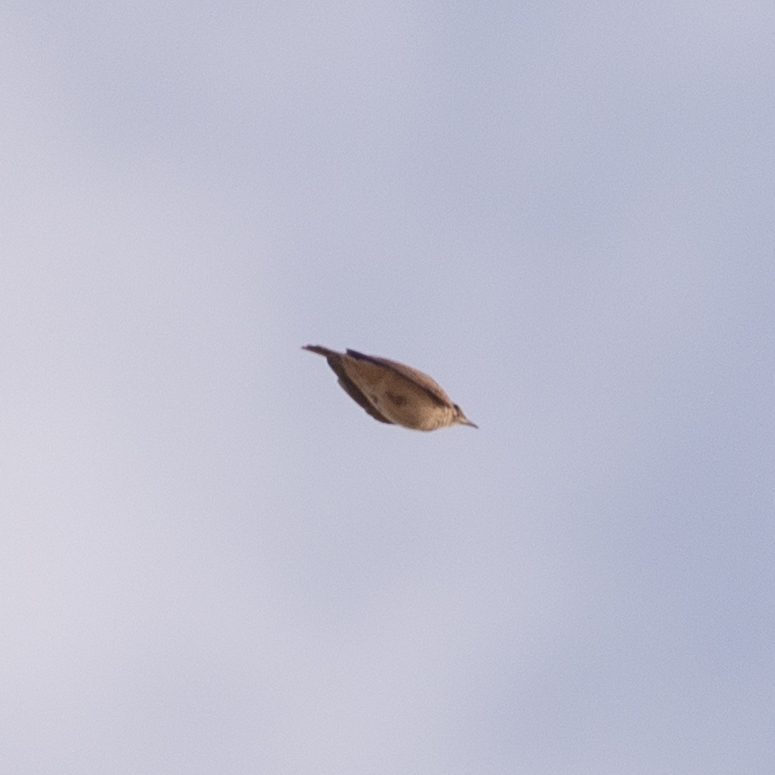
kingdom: Animalia
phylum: Chordata
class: Aves
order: Passeriformes
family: Alaudidae
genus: Galerida
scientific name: Galerida cristata
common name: Crested lark
